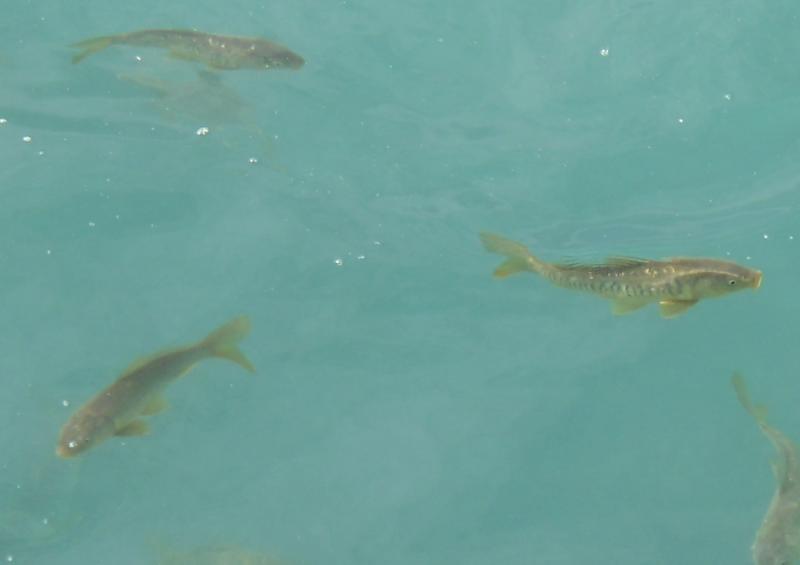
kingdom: Animalia
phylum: Chordata
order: Cypriniformes
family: Cyprinidae
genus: Cyprinus
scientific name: Cyprinus carpio
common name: Common carp
